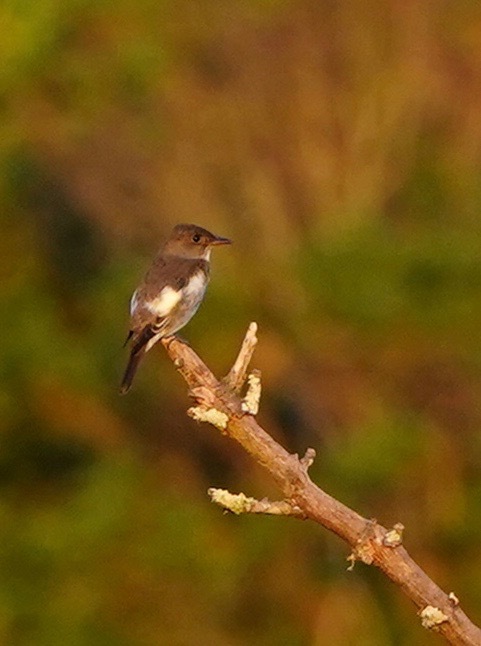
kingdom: Animalia
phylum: Chordata
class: Aves
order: Passeriformes
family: Tyrannidae
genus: Contopus
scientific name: Contopus cooperi
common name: Olive-sided flycatcher
